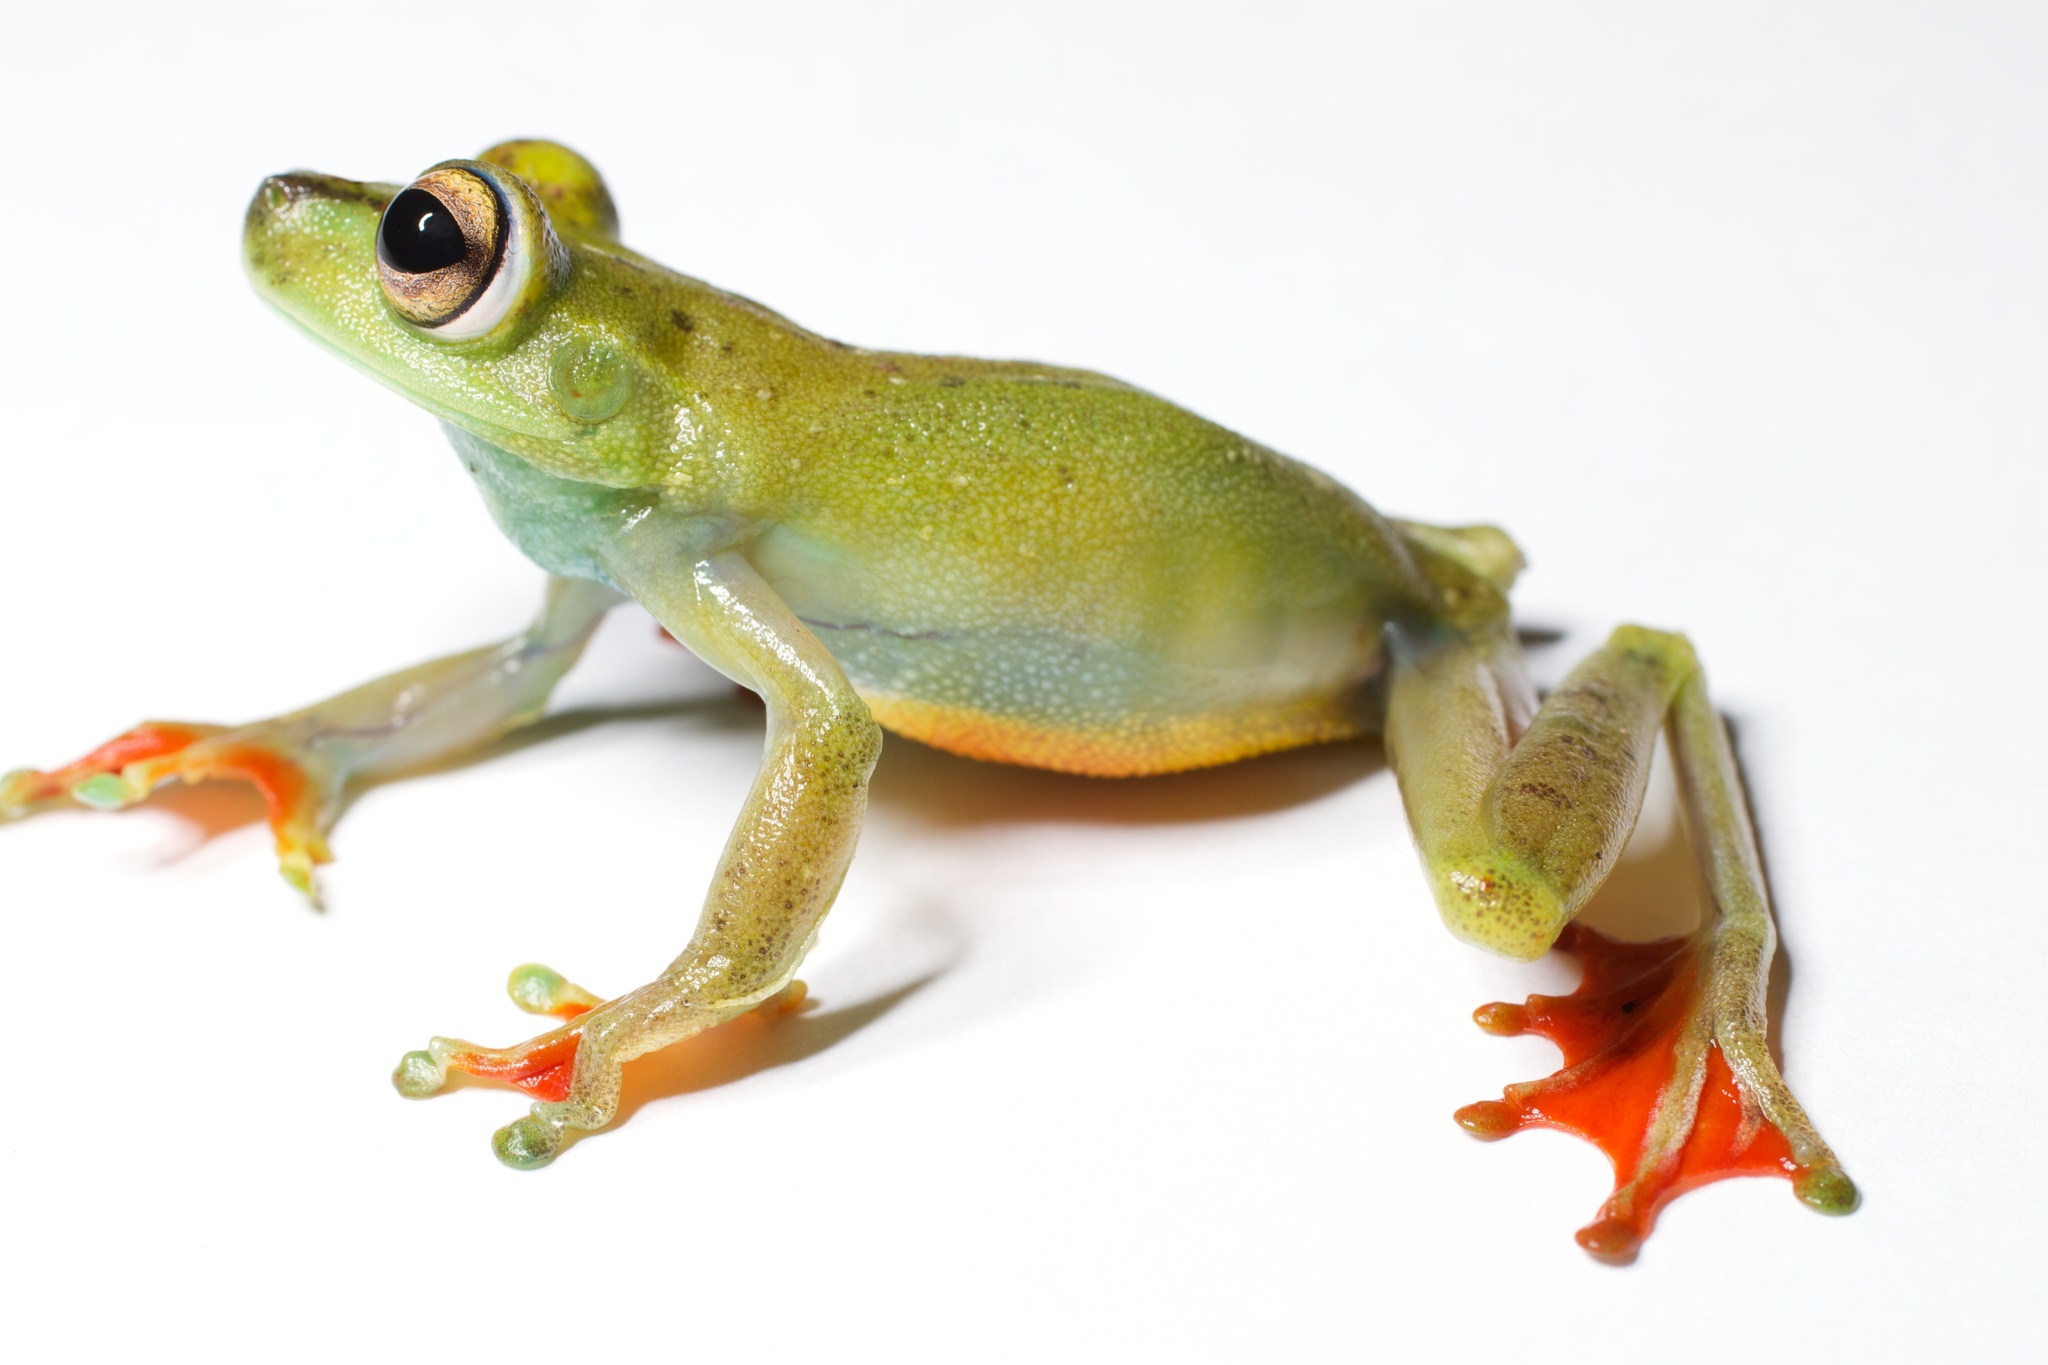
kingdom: Animalia
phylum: Chordata
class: Amphibia
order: Anura
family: Hylidae
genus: Boana
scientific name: Boana rufitela
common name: Canal zone treefrog
